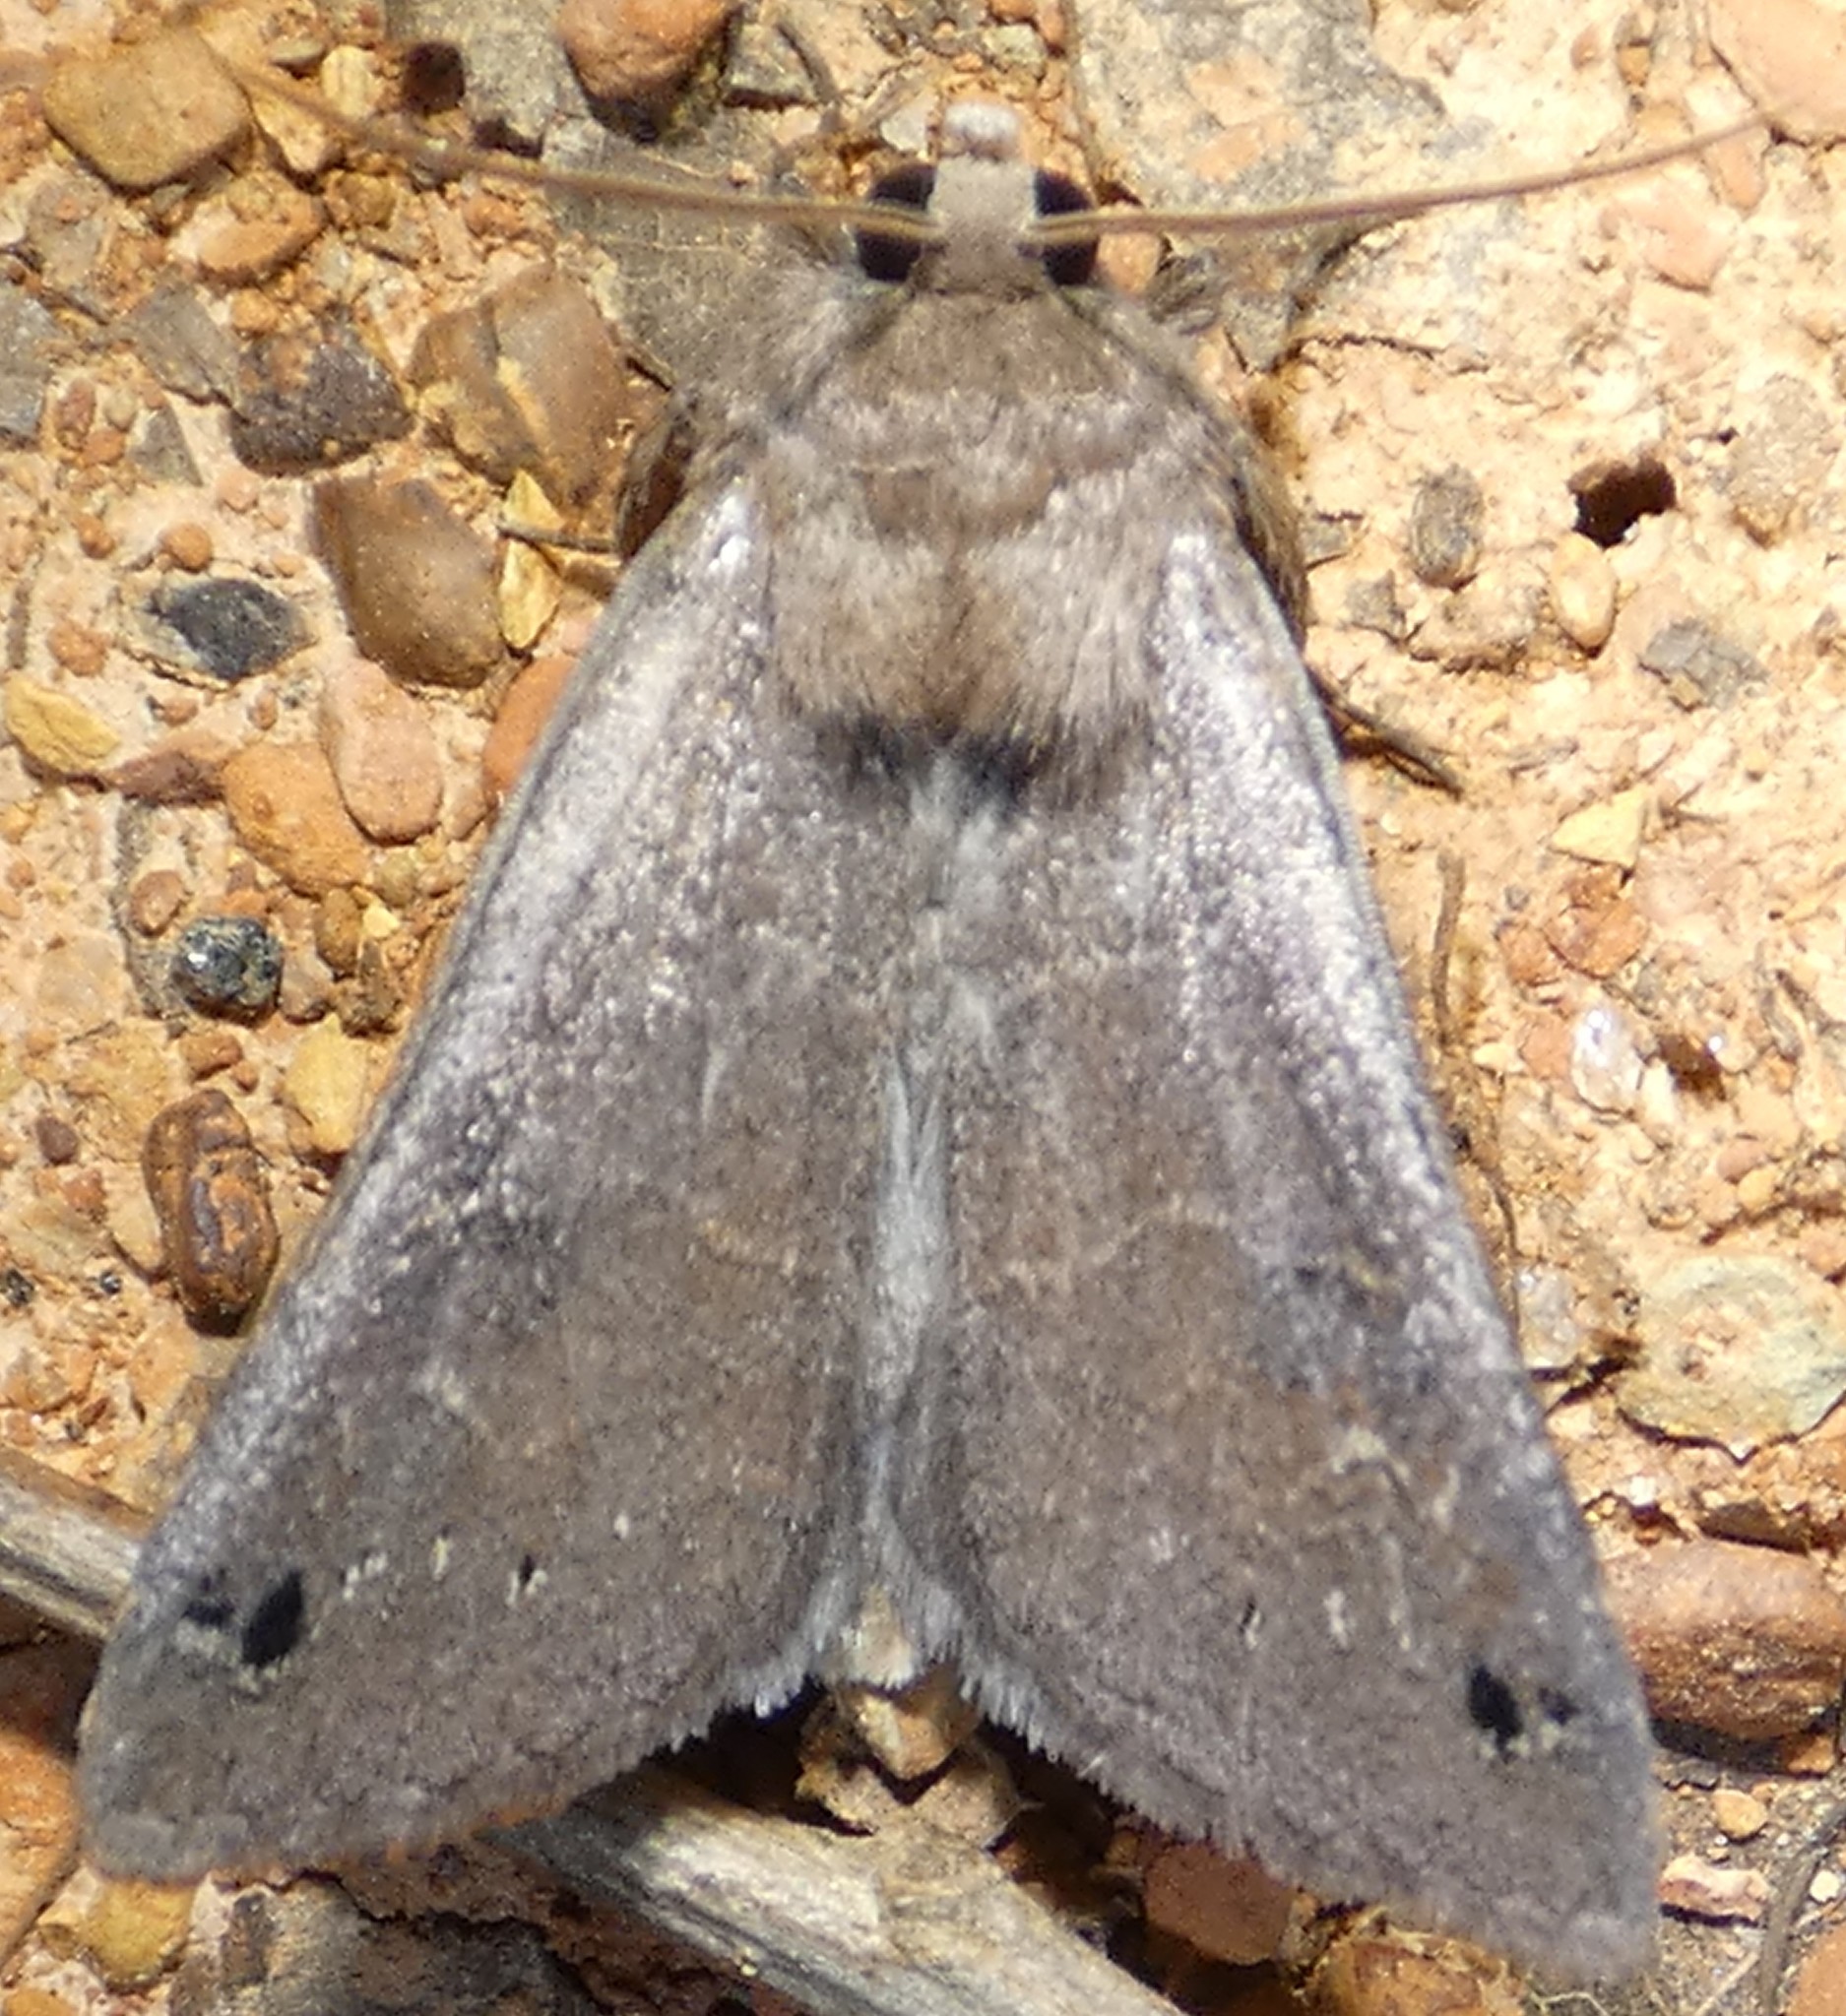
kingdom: Animalia
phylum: Arthropoda
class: Insecta
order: Lepidoptera
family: Erebidae
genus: Cissusa
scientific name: Cissusa spadix
